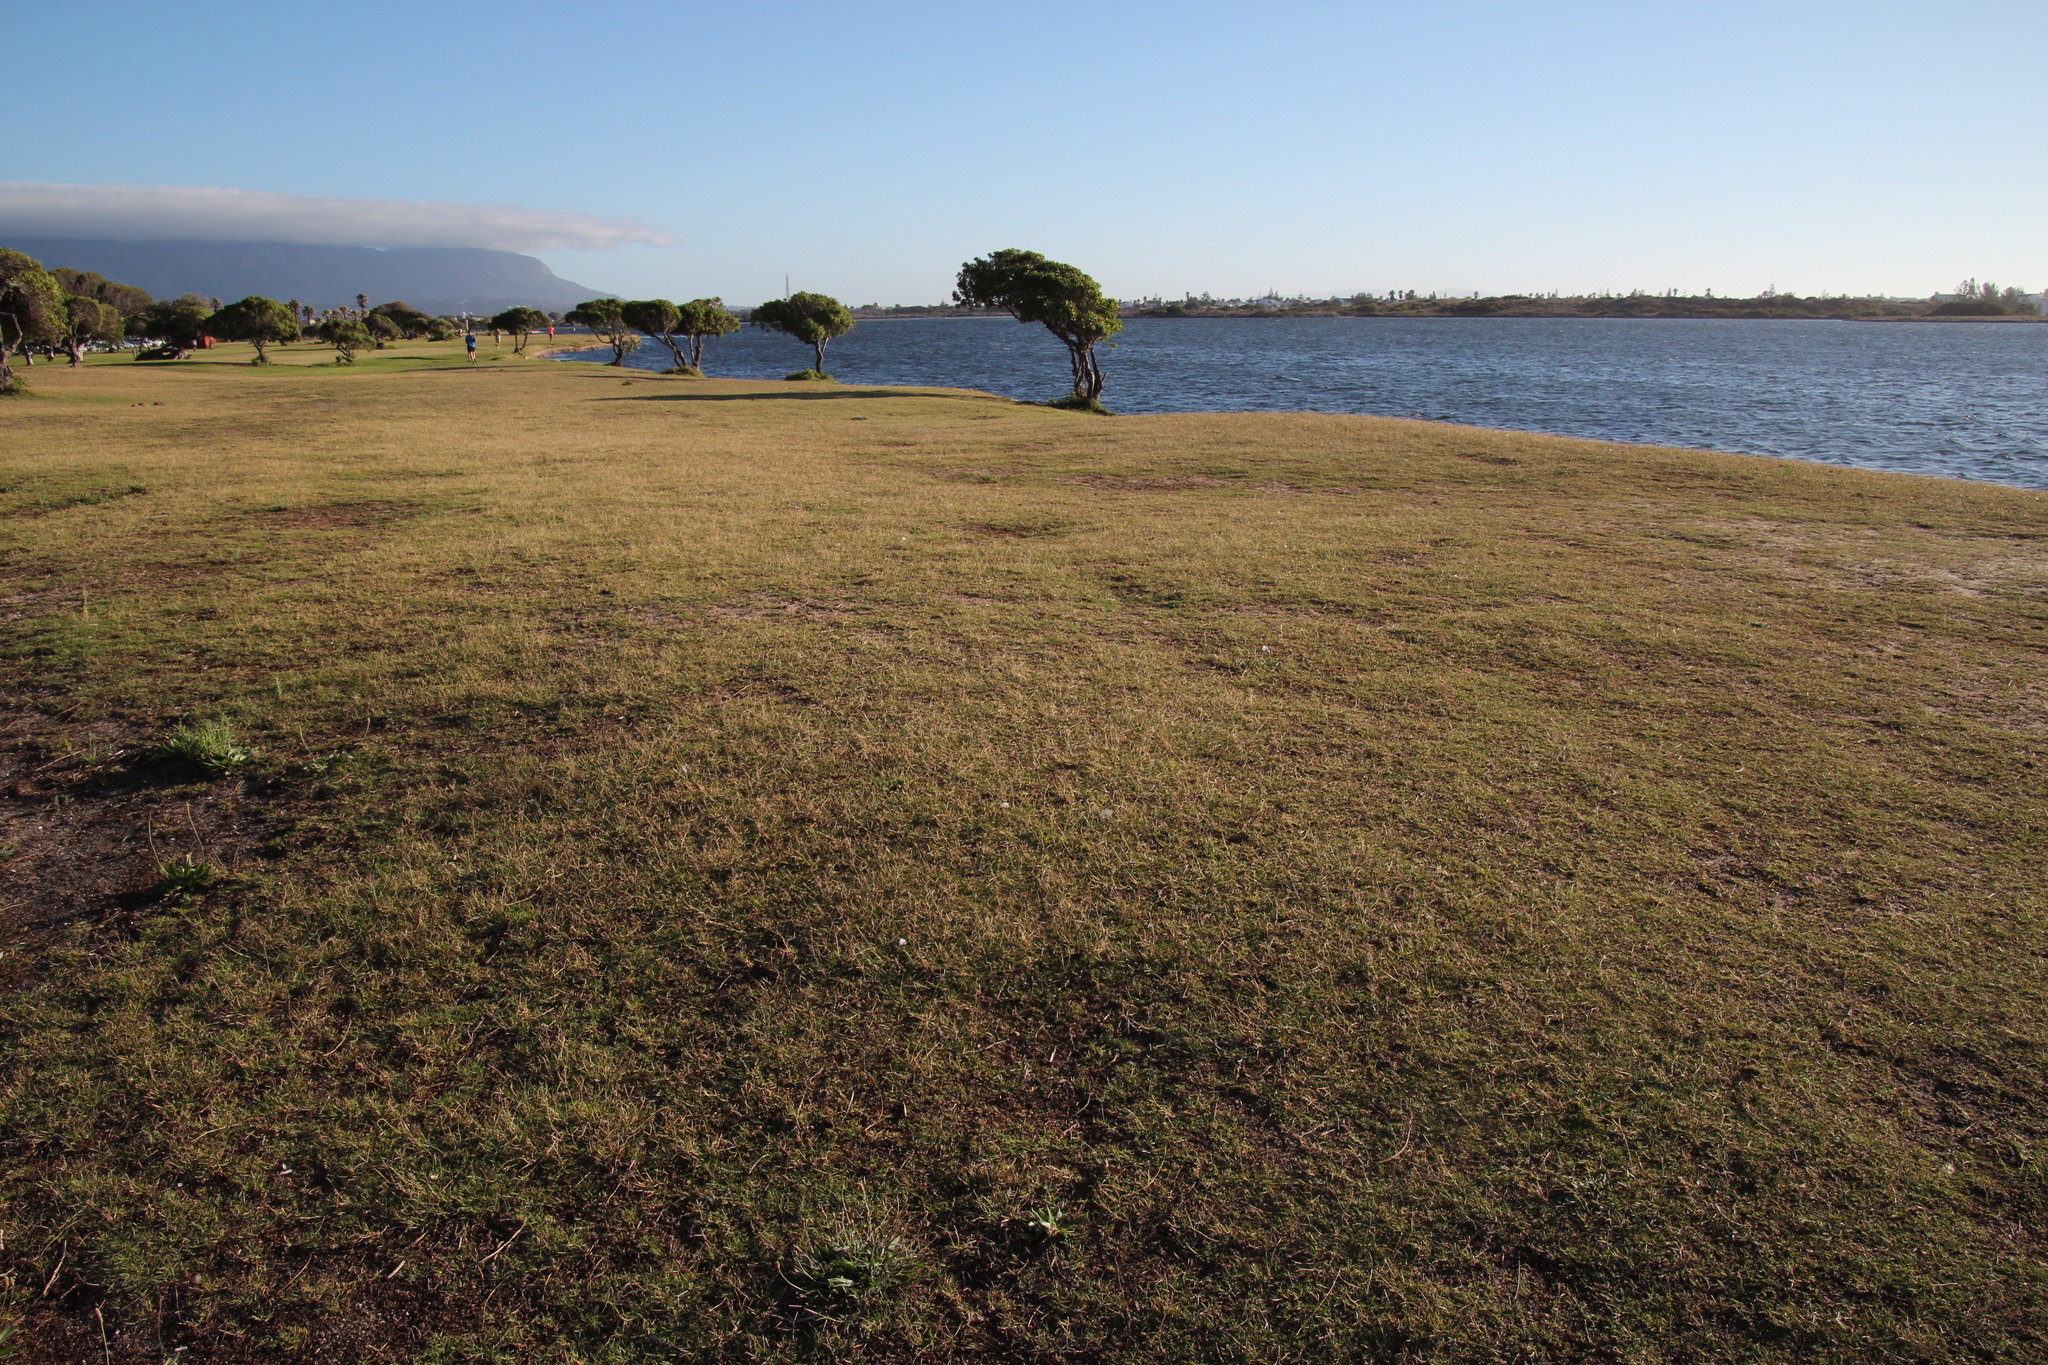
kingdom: Plantae
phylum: Tracheophyta
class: Liliopsida
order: Poales
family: Poaceae
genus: Cynodon
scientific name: Cynodon dactylon
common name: Bermuda grass
